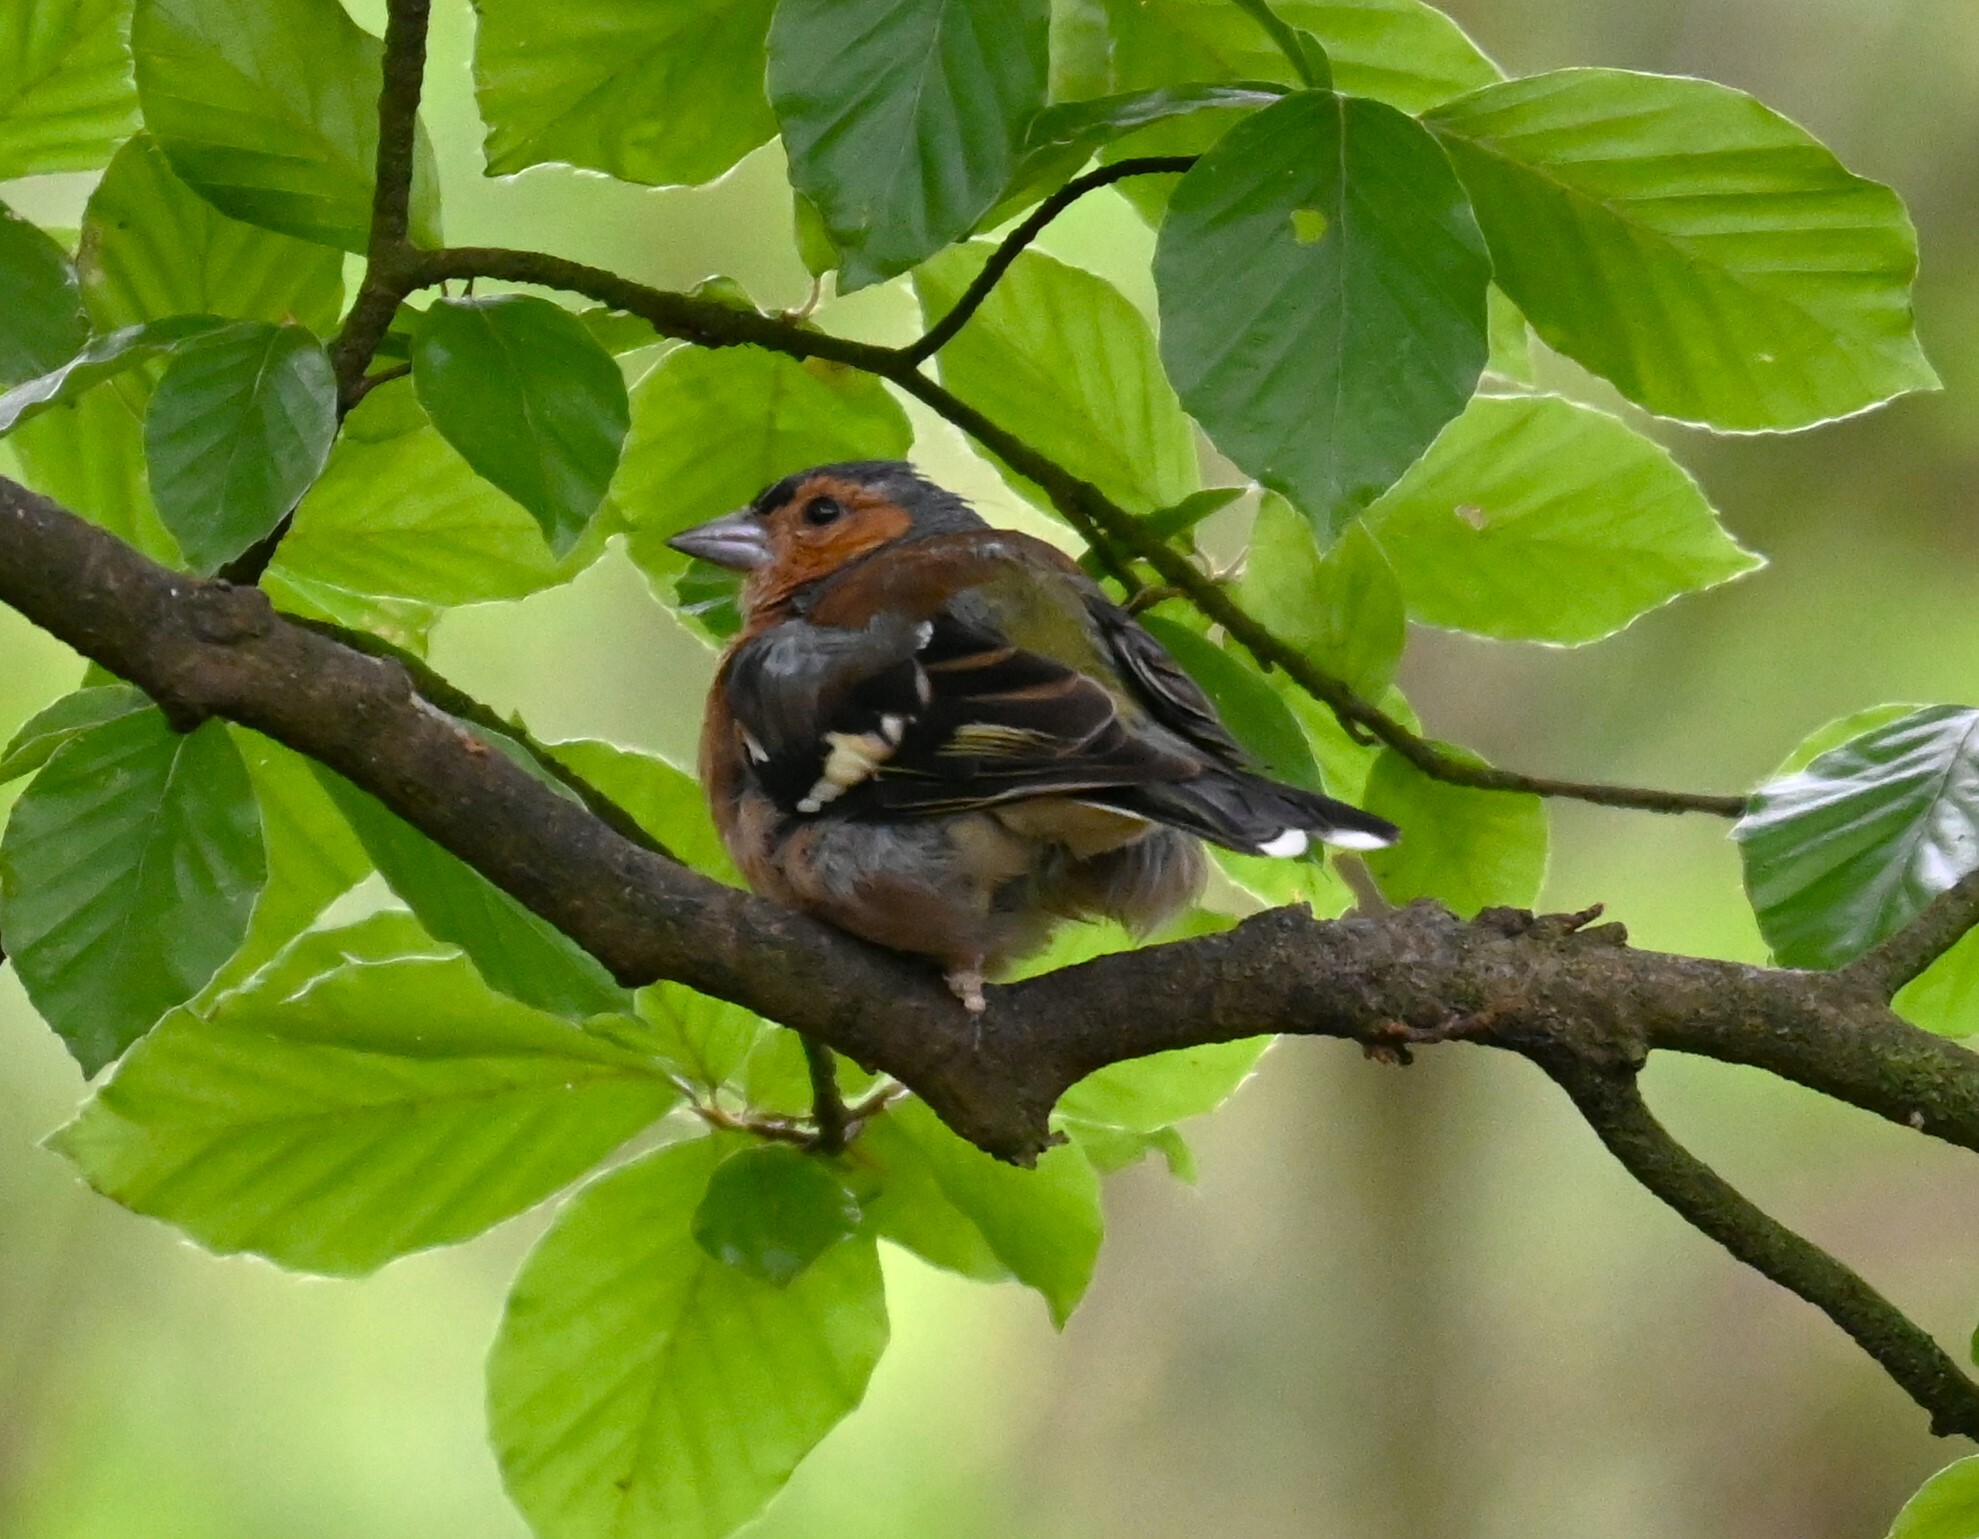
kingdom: Animalia
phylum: Chordata
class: Aves
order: Passeriformes
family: Fringillidae
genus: Fringilla
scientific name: Fringilla coelebs
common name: Common chaffinch
